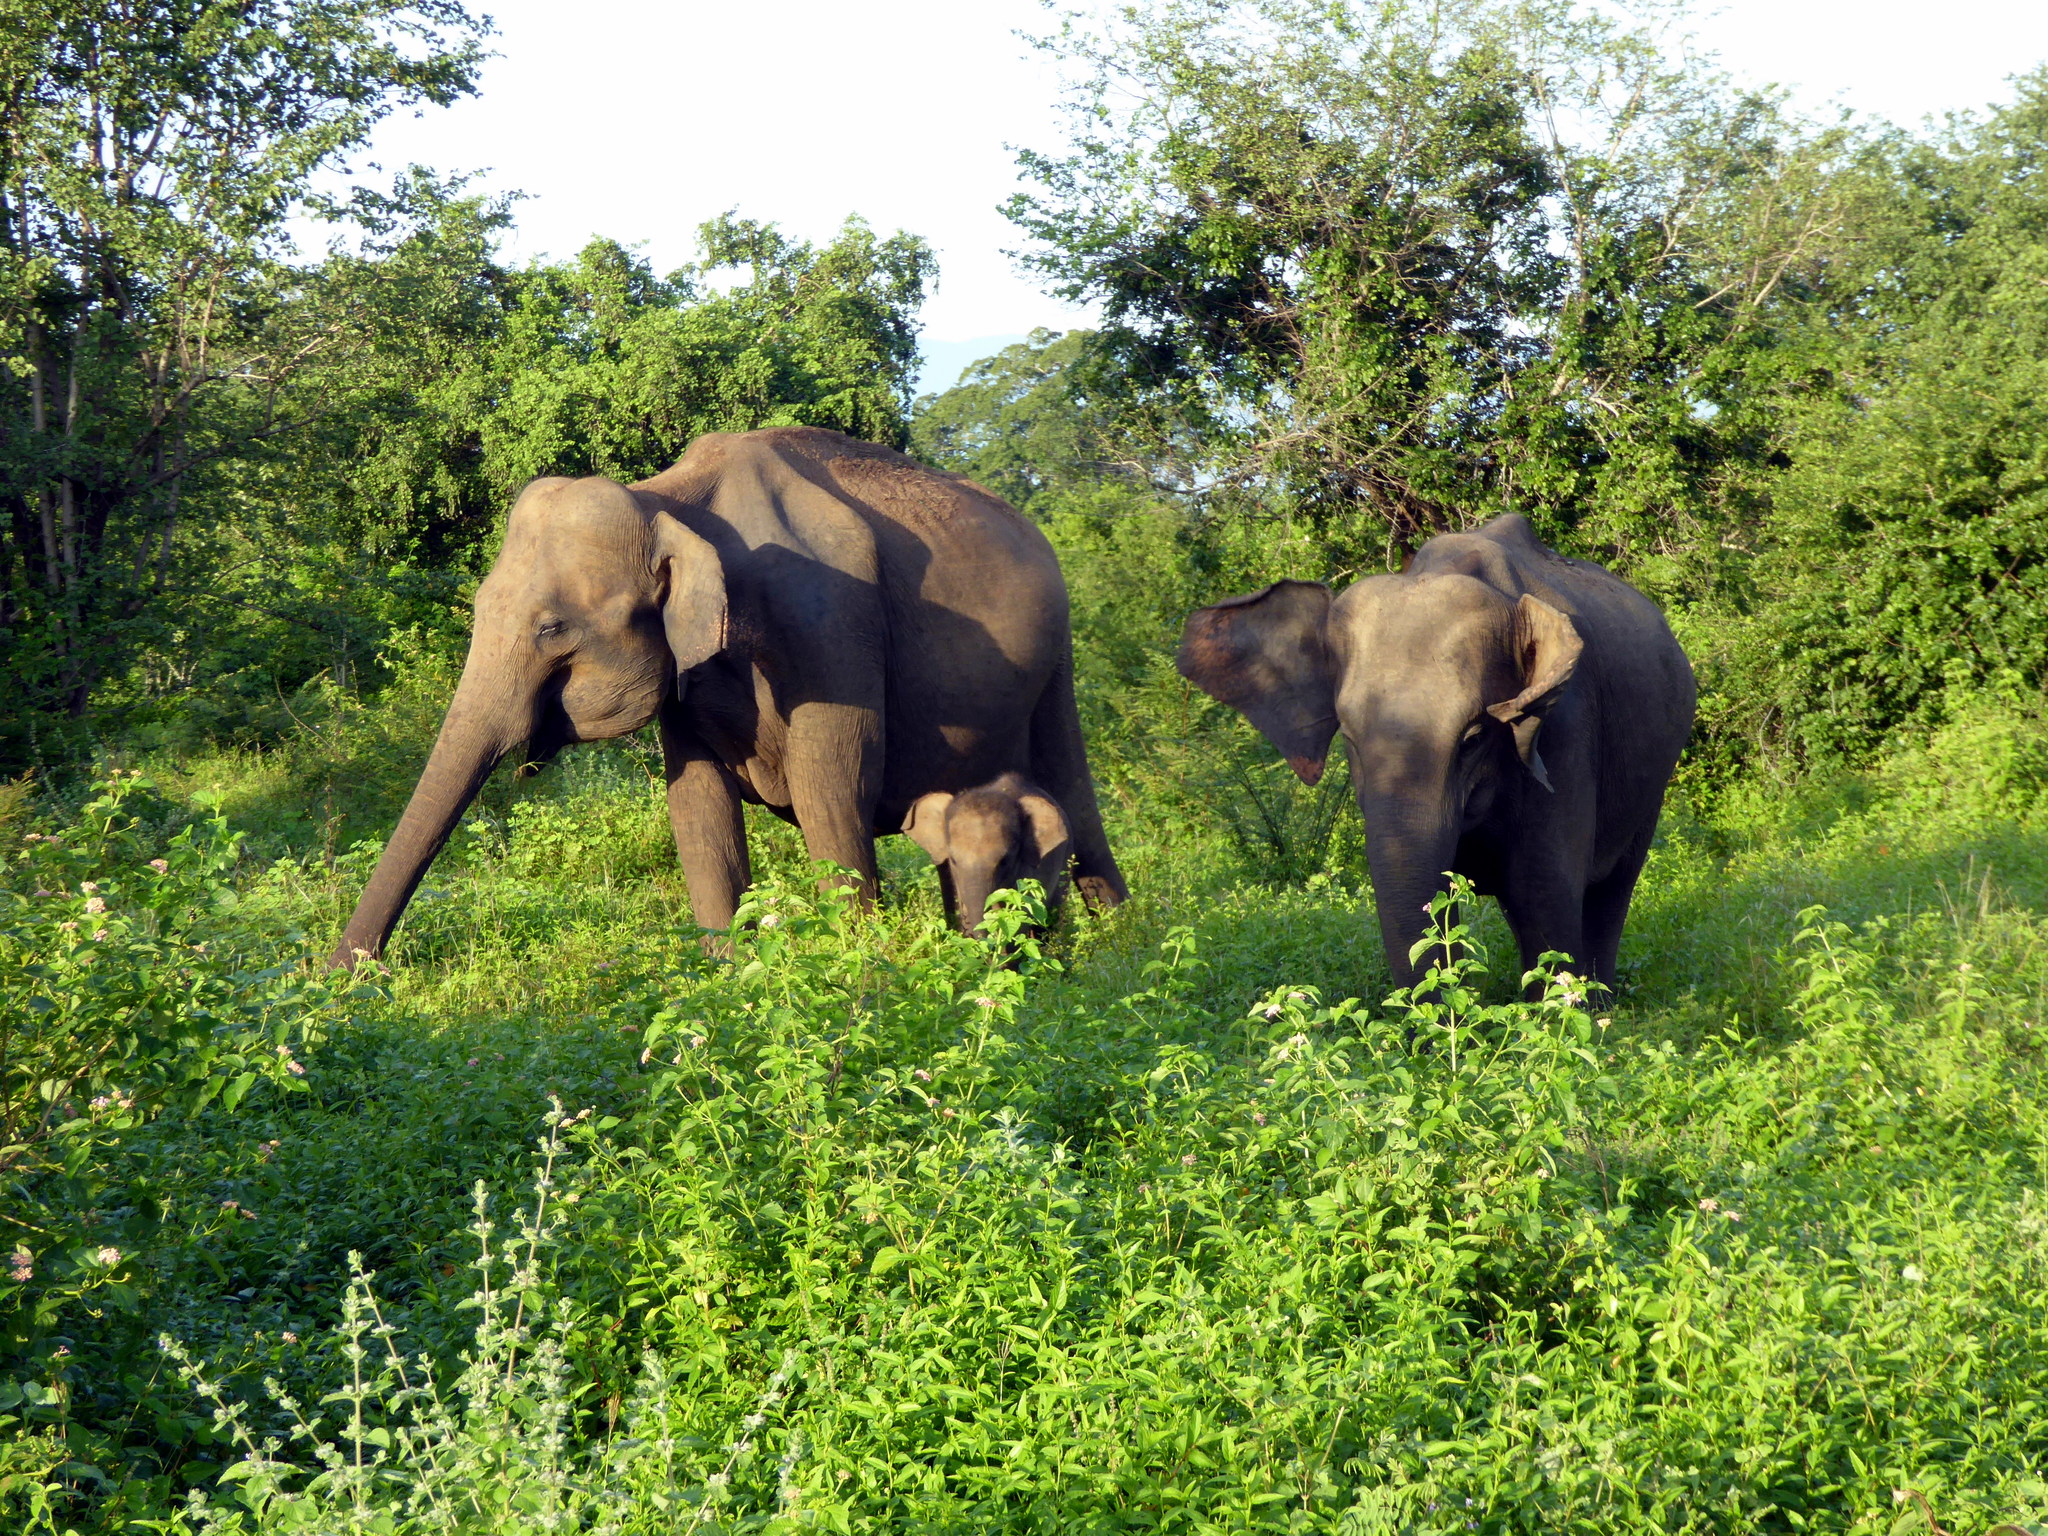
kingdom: Animalia
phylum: Chordata
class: Mammalia
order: Proboscidea
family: Elephantidae
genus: Elephas
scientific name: Elephas maximus
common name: Asian elephant
